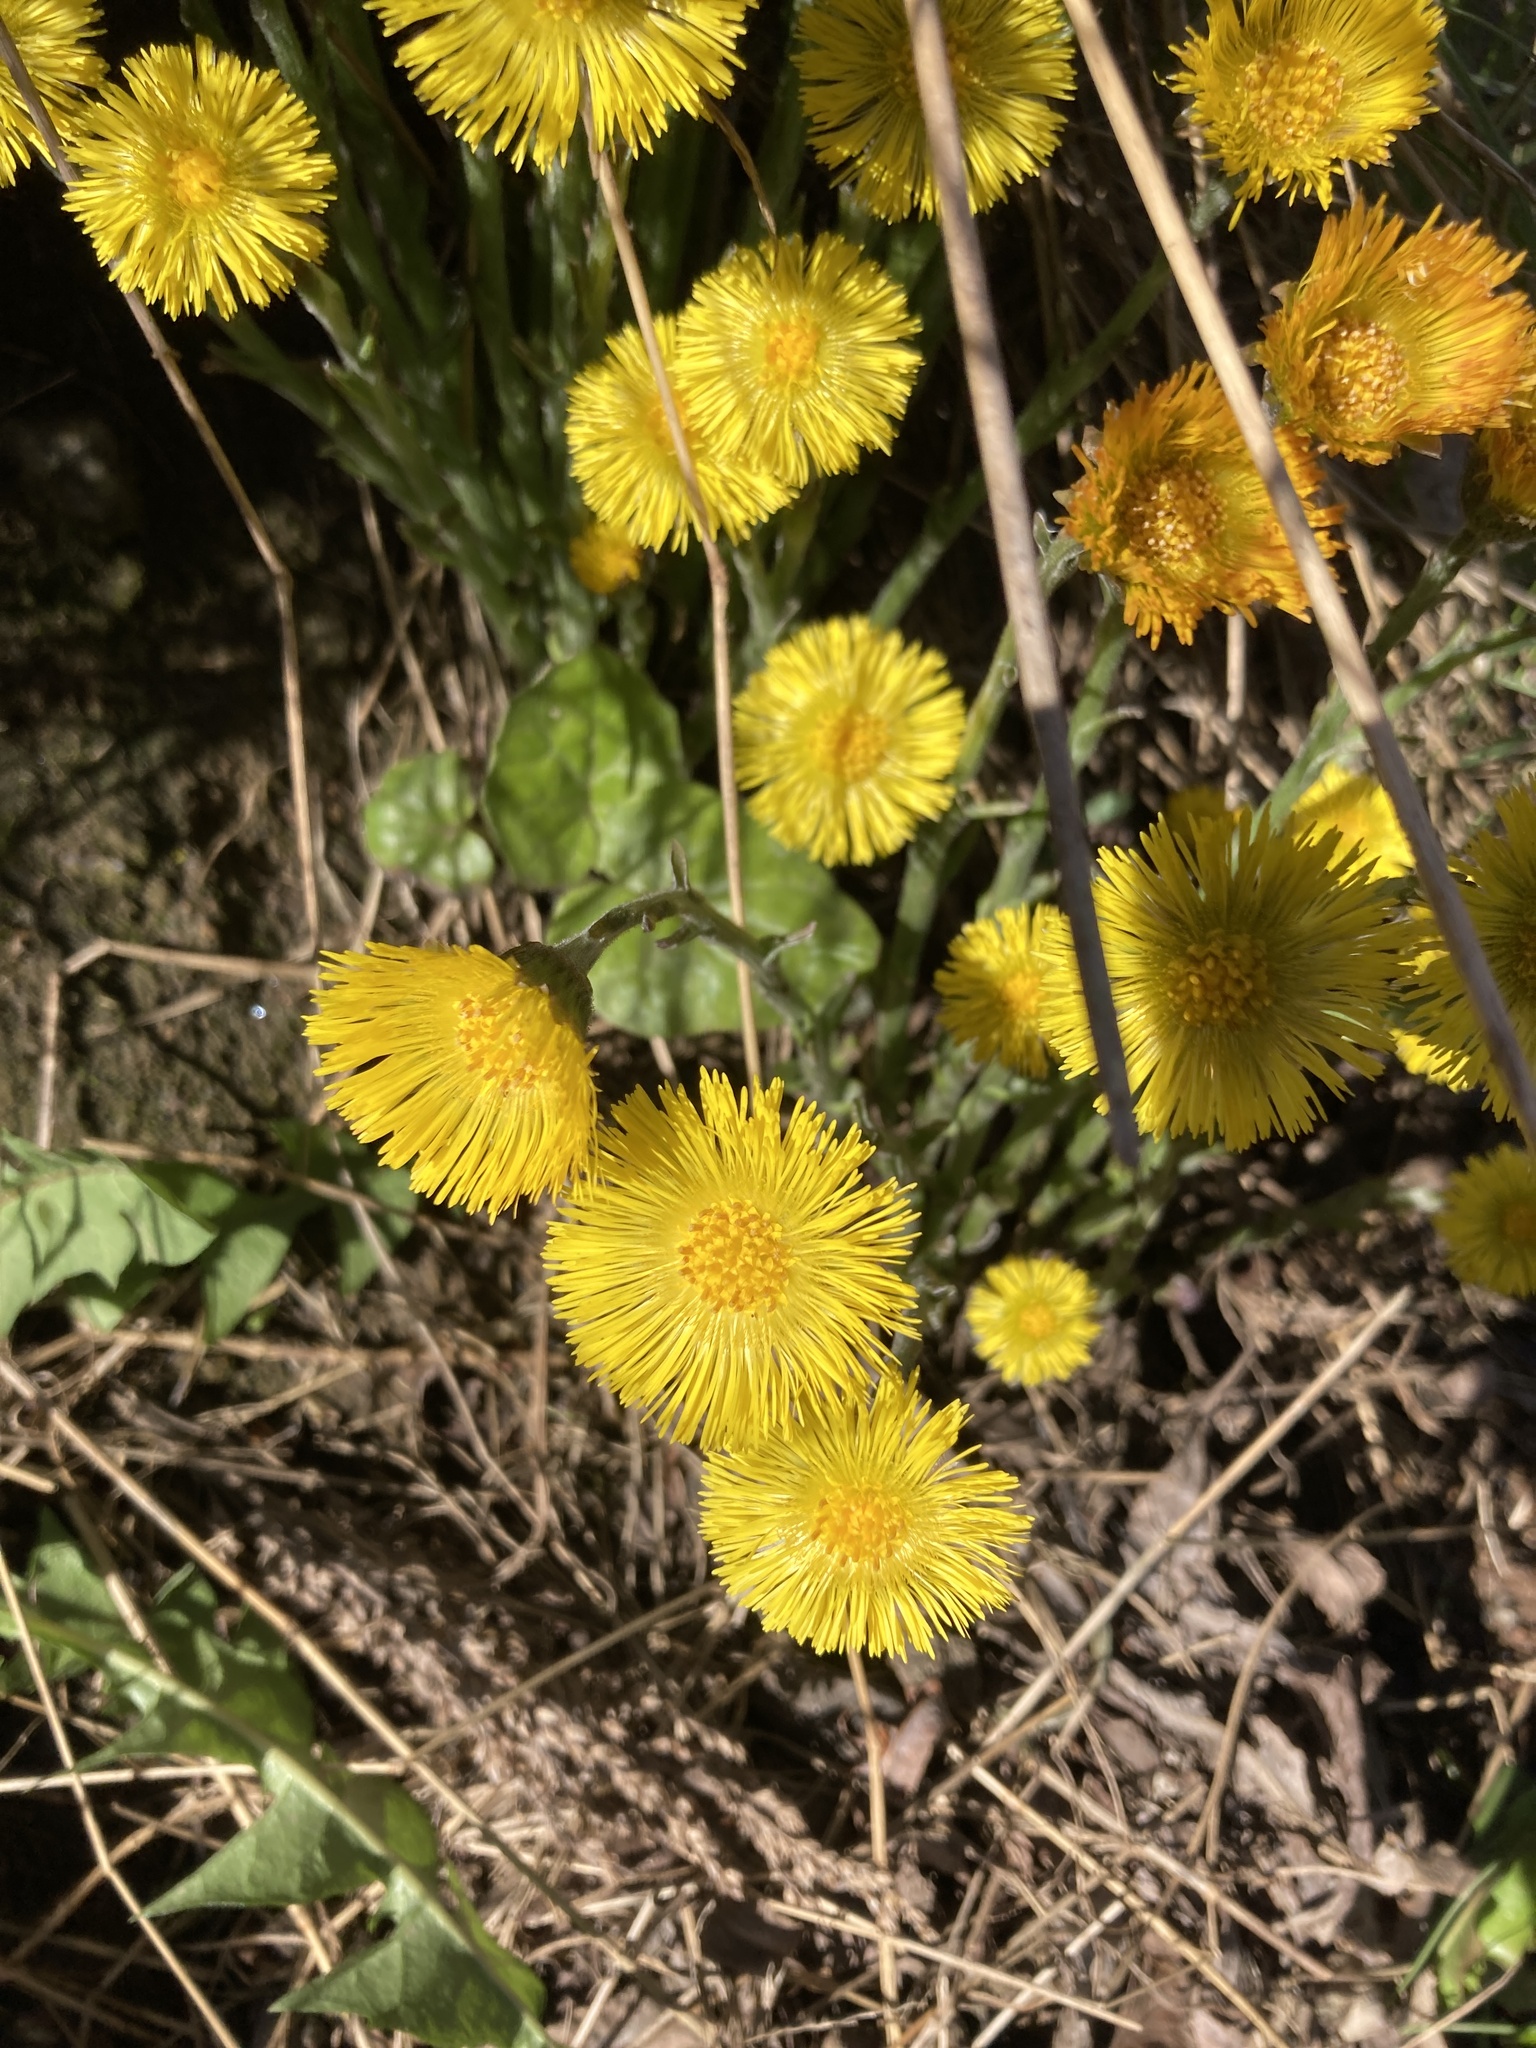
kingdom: Plantae
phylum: Tracheophyta
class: Magnoliopsida
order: Asterales
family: Asteraceae
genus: Tussilago
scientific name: Tussilago farfara
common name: Coltsfoot
